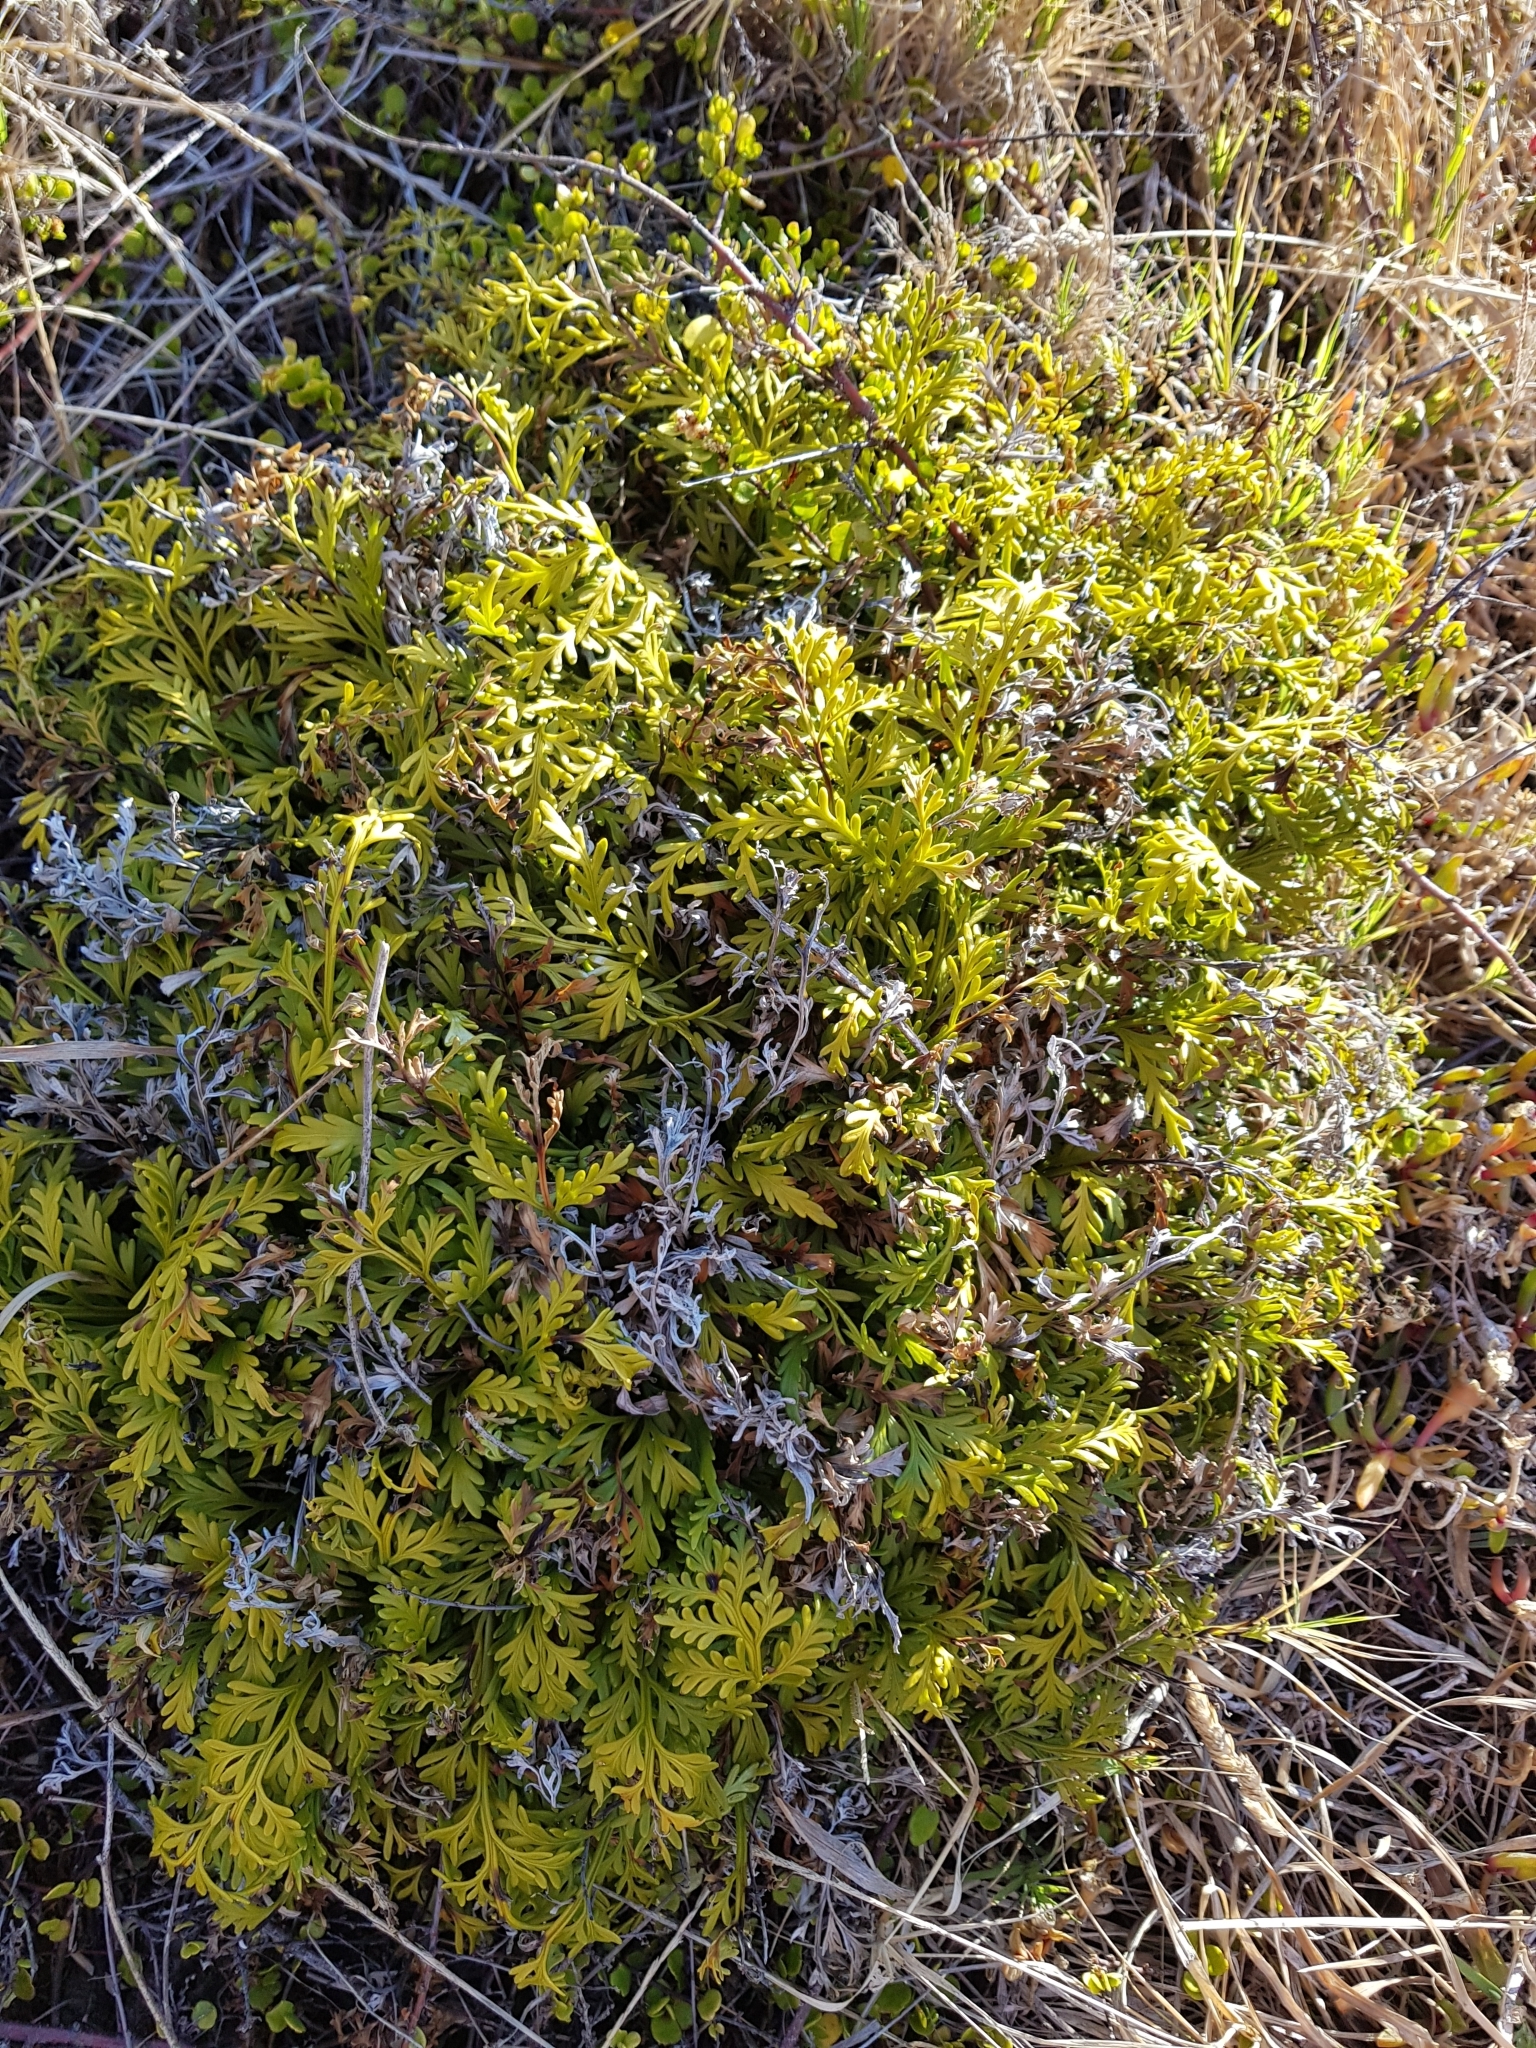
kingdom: Plantae
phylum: Tracheophyta
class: Polypodiopsida
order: Polypodiales
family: Aspleniaceae
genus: Asplenium
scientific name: Asplenium haurakiense
